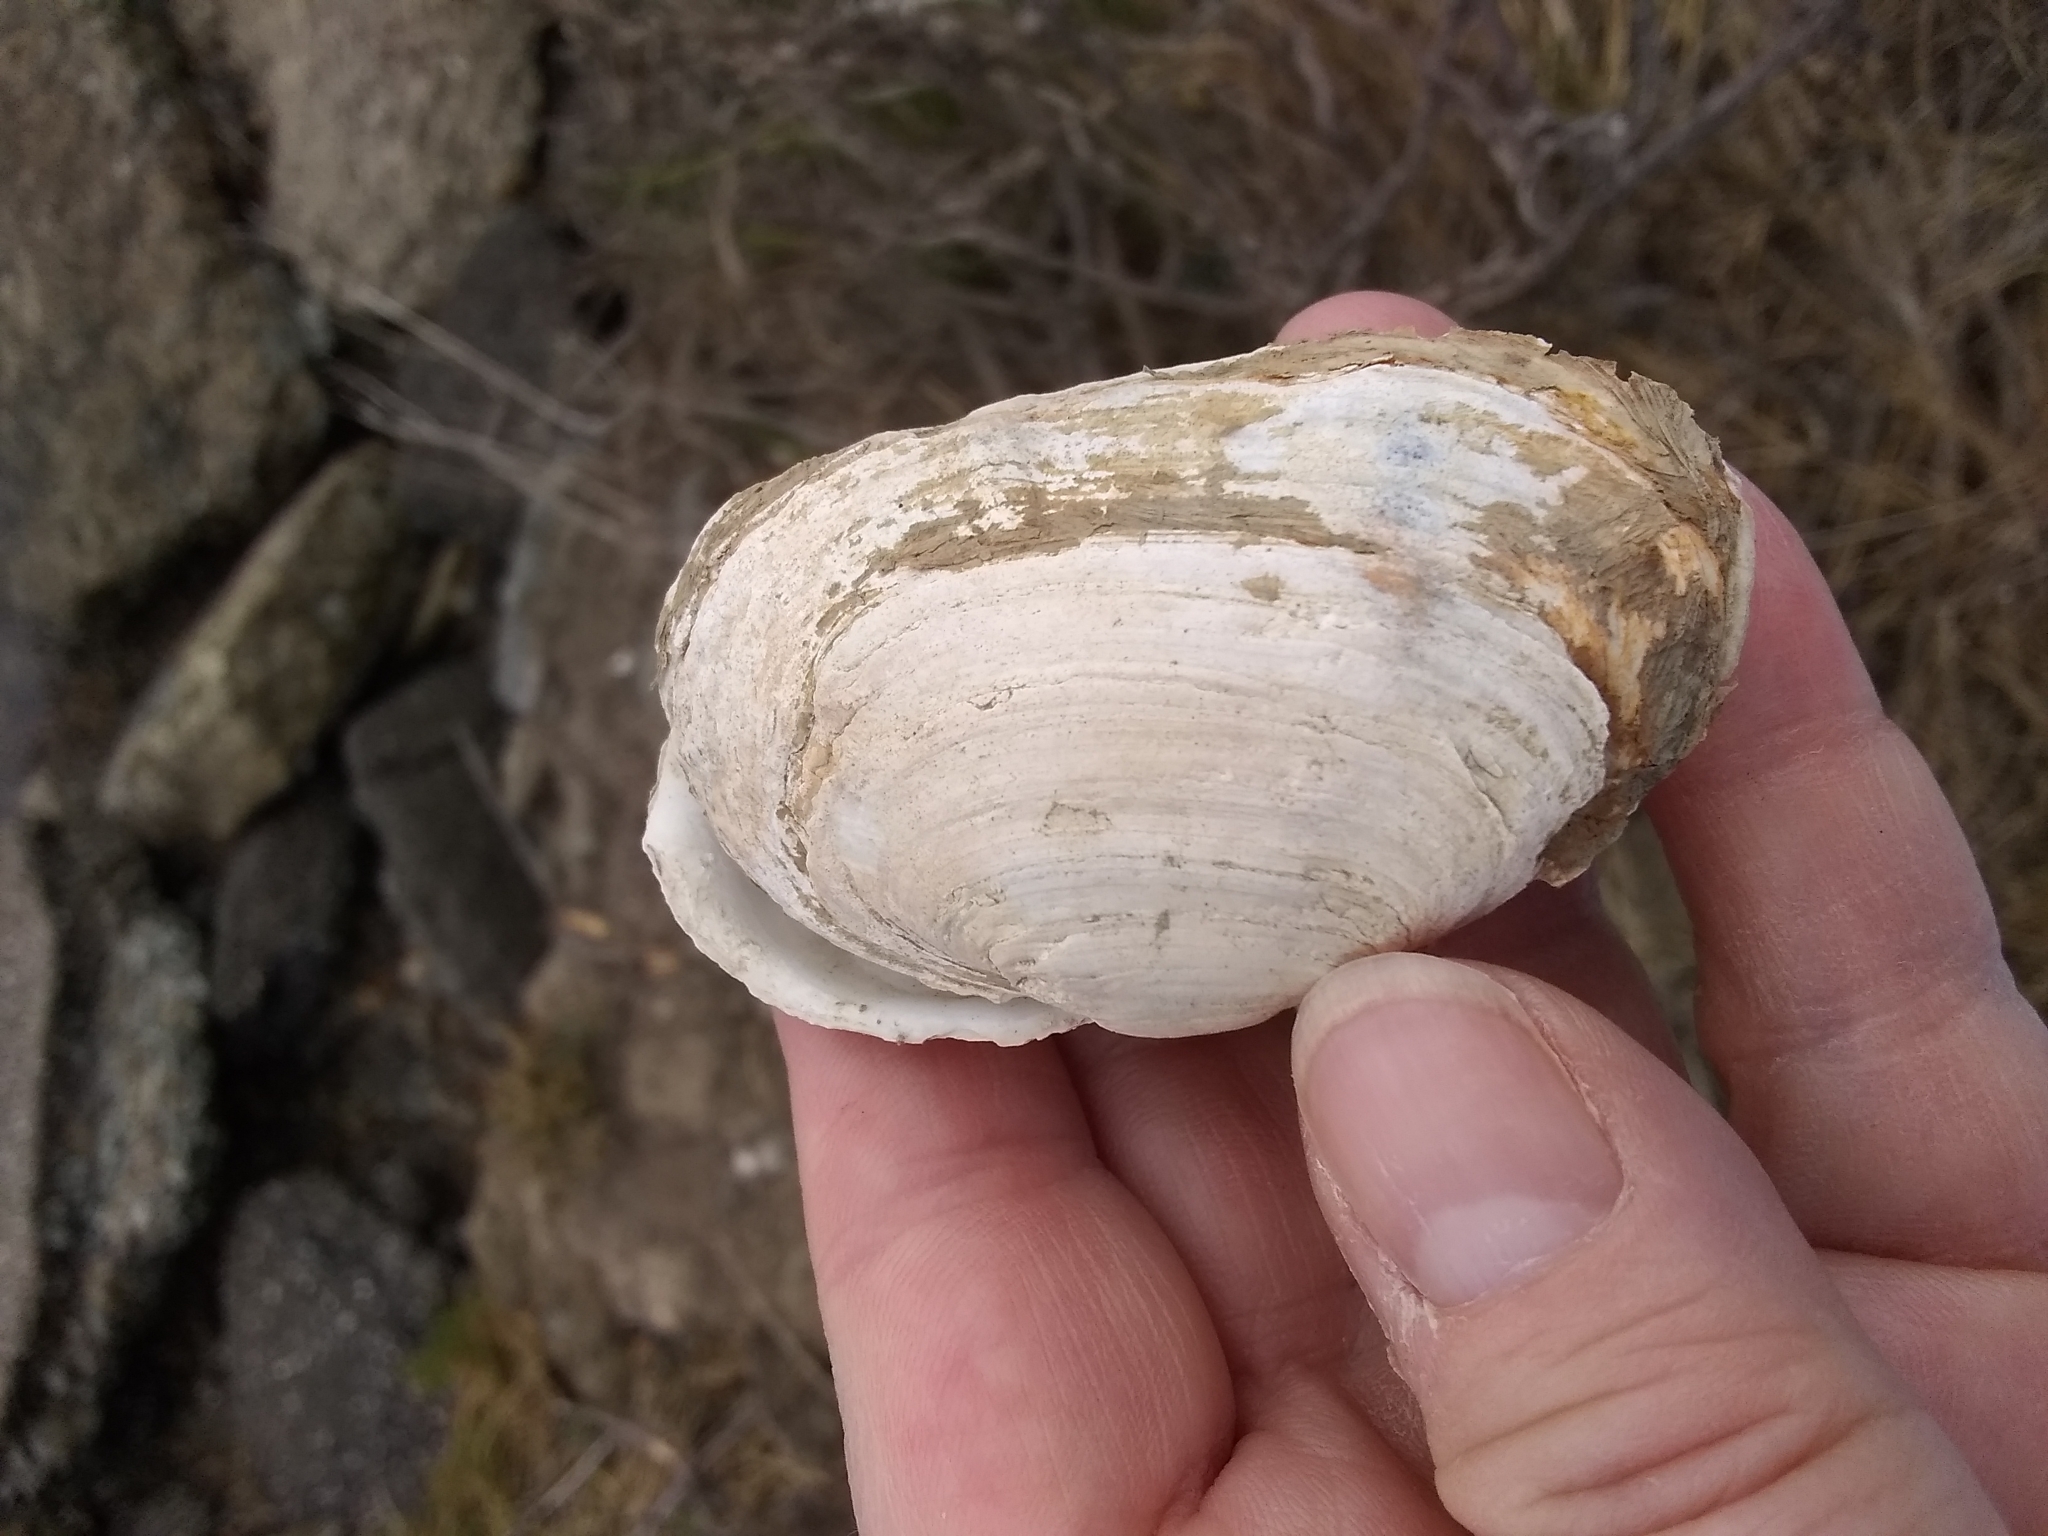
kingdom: Animalia
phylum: Mollusca
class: Bivalvia
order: Myida
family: Myidae
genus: Mya
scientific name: Mya arenaria
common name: Soft-shelled clam
